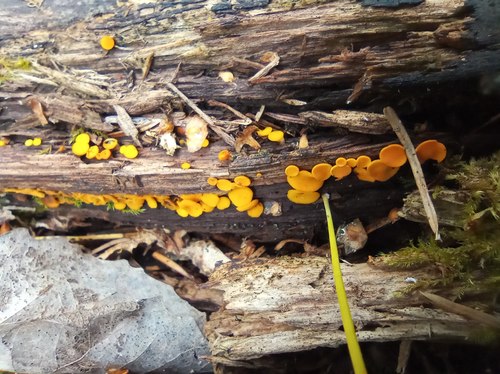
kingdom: Fungi
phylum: Ascomycota
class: Leotiomycetes
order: Helotiales
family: Pezizellaceae
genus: Calycina
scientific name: Calycina citrina
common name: Yellow fairy cups
